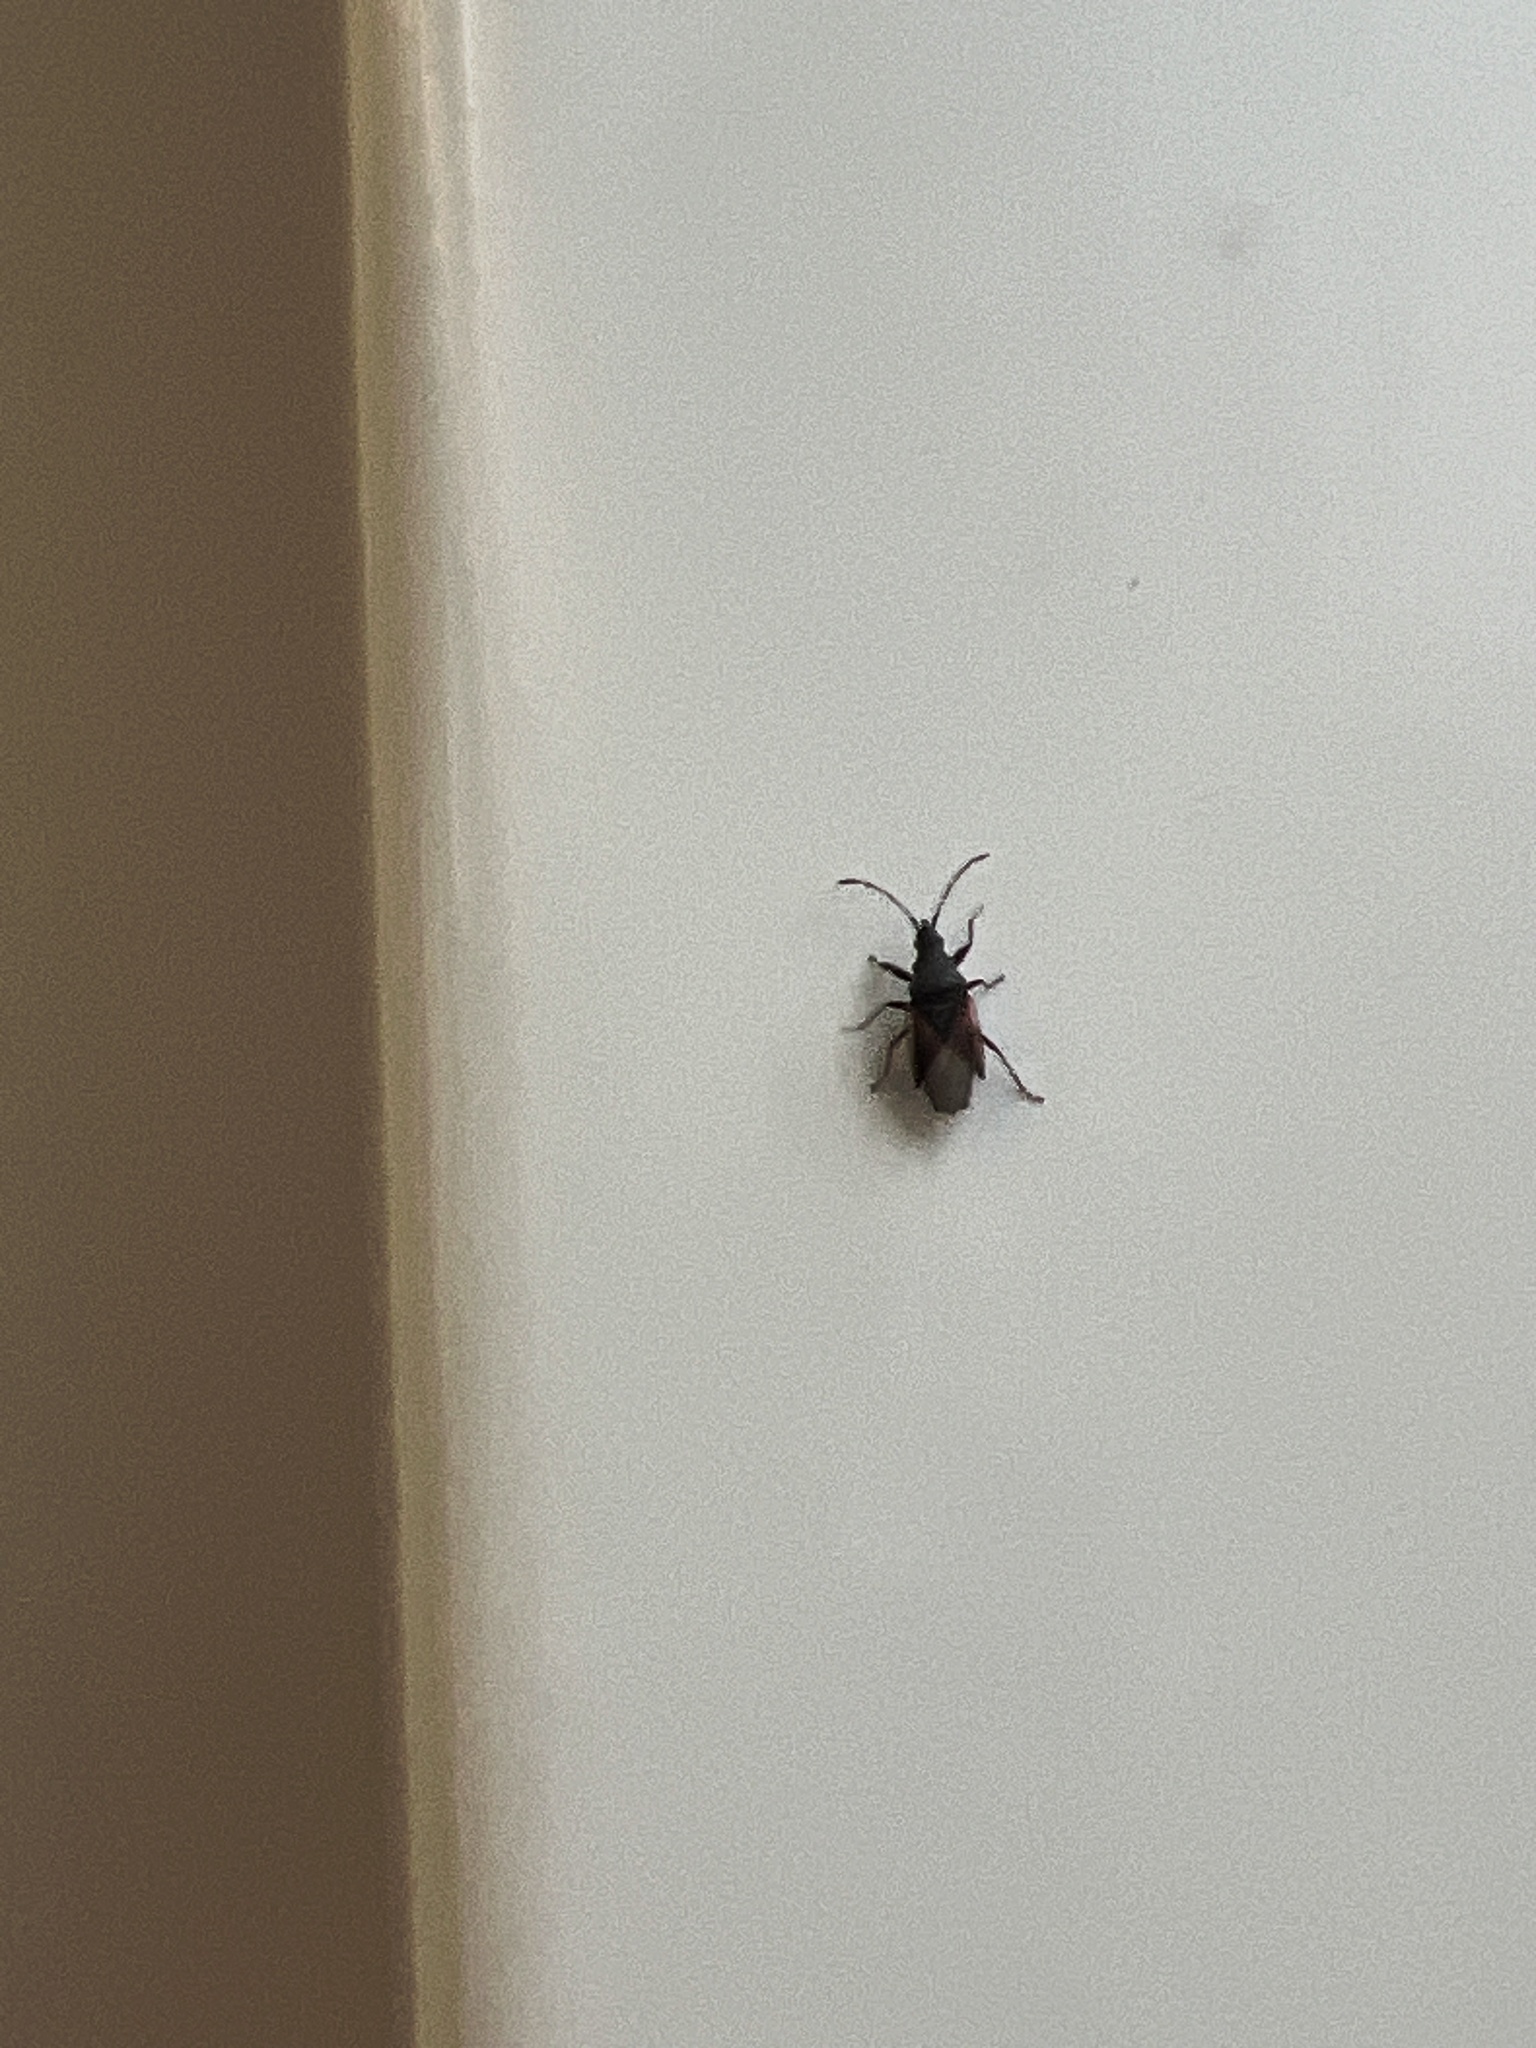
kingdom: Animalia
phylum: Arthropoda
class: Insecta
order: Hemiptera
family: Oxycarenidae
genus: Oxycarenus
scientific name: Oxycarenus lavaterae
